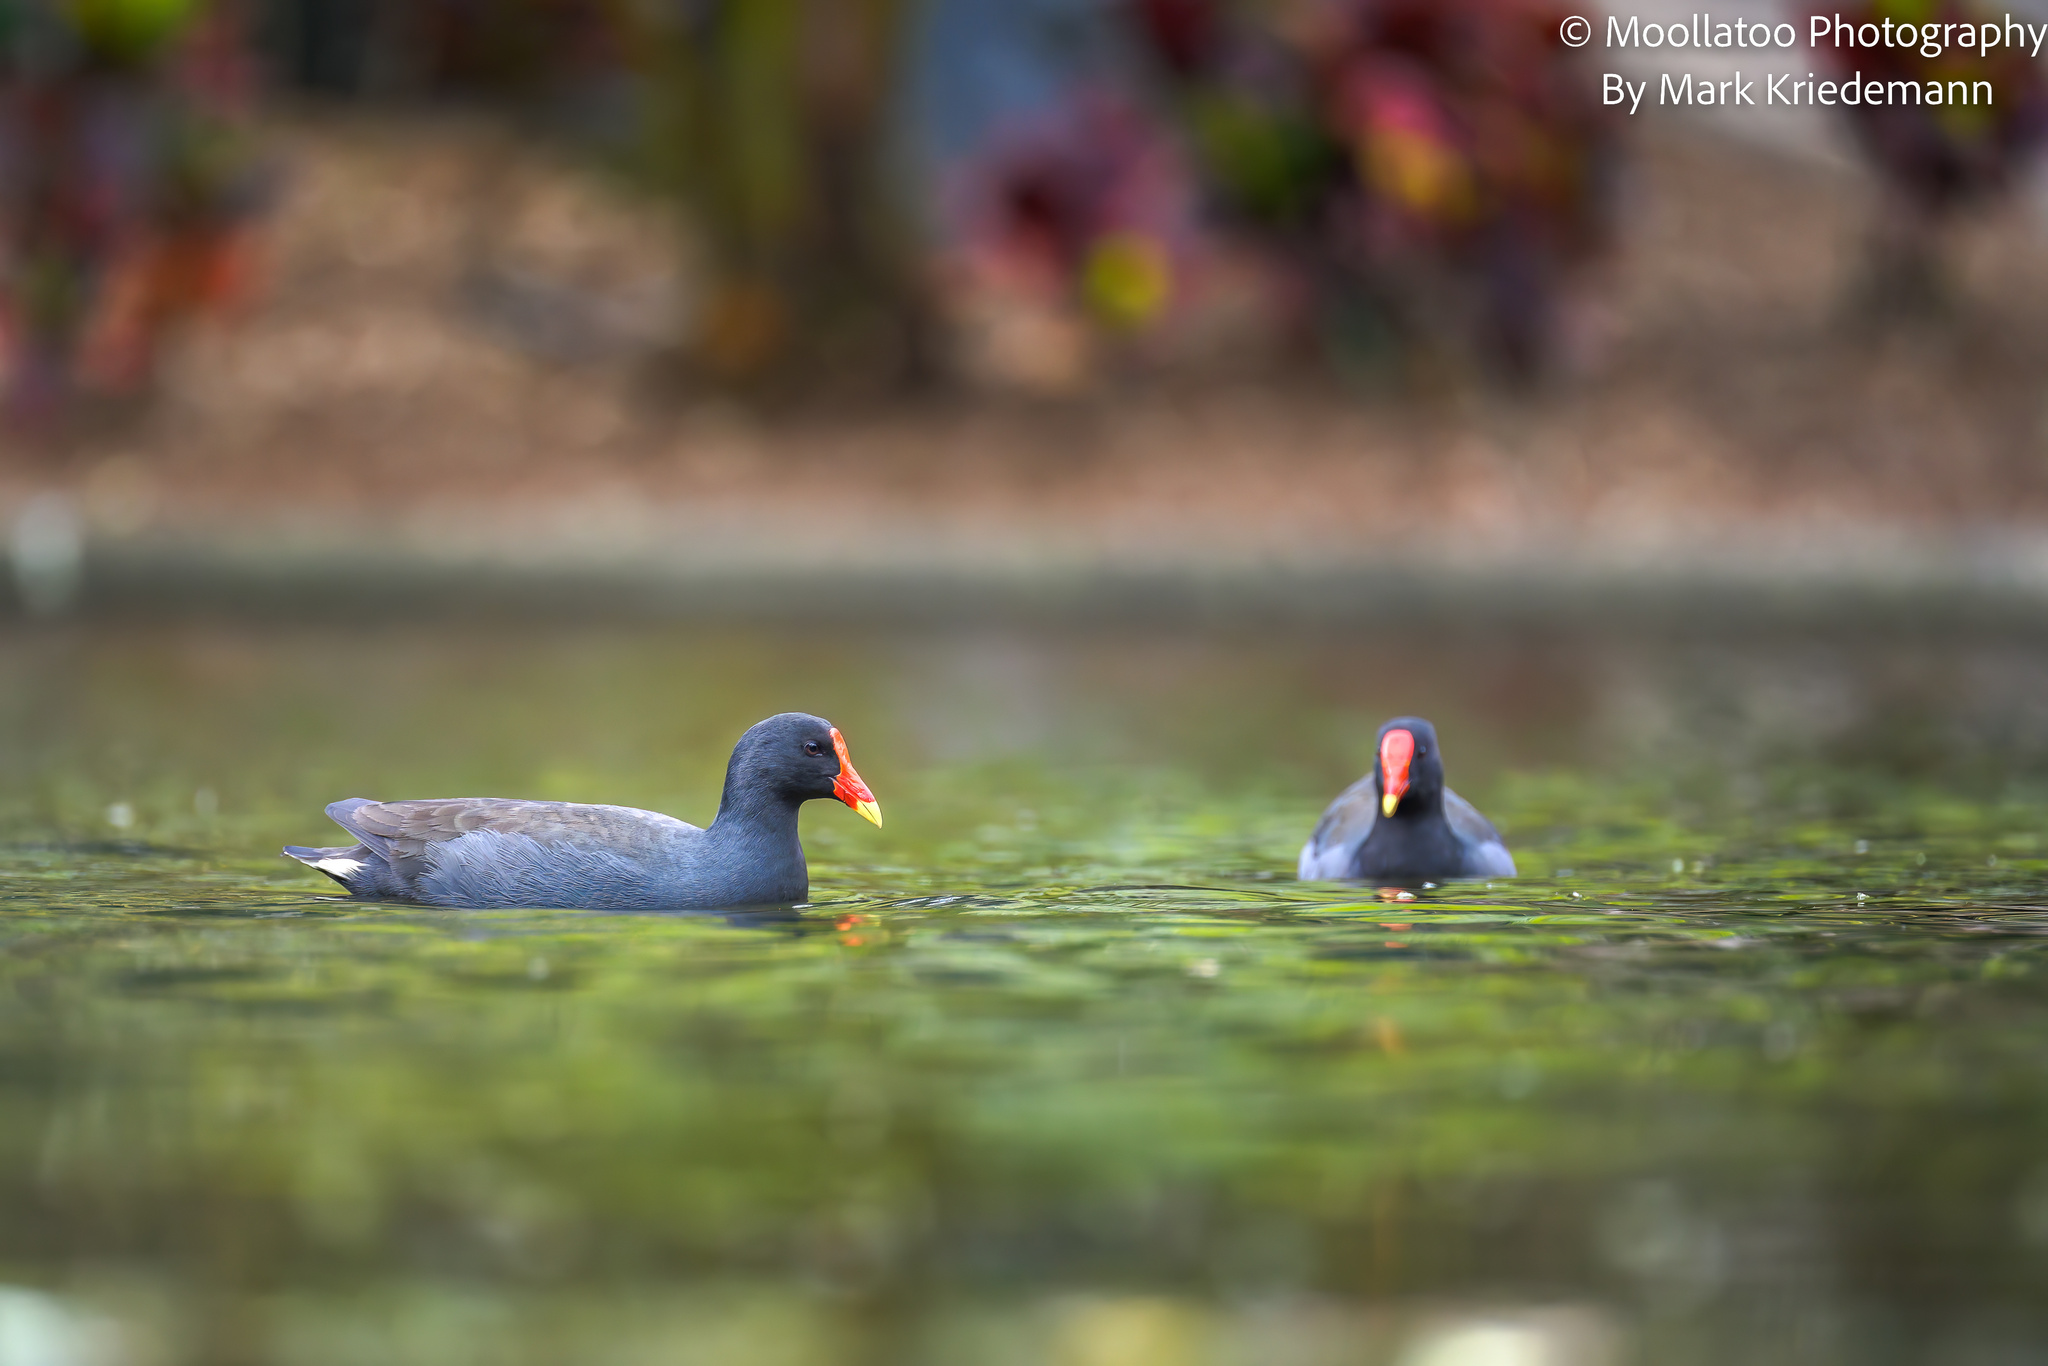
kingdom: Animalia
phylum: Chordata
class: Aves
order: Gruiformes
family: Rallidae
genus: Gallinula
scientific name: Gallinula tenebrosa
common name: Dusky moorhen
